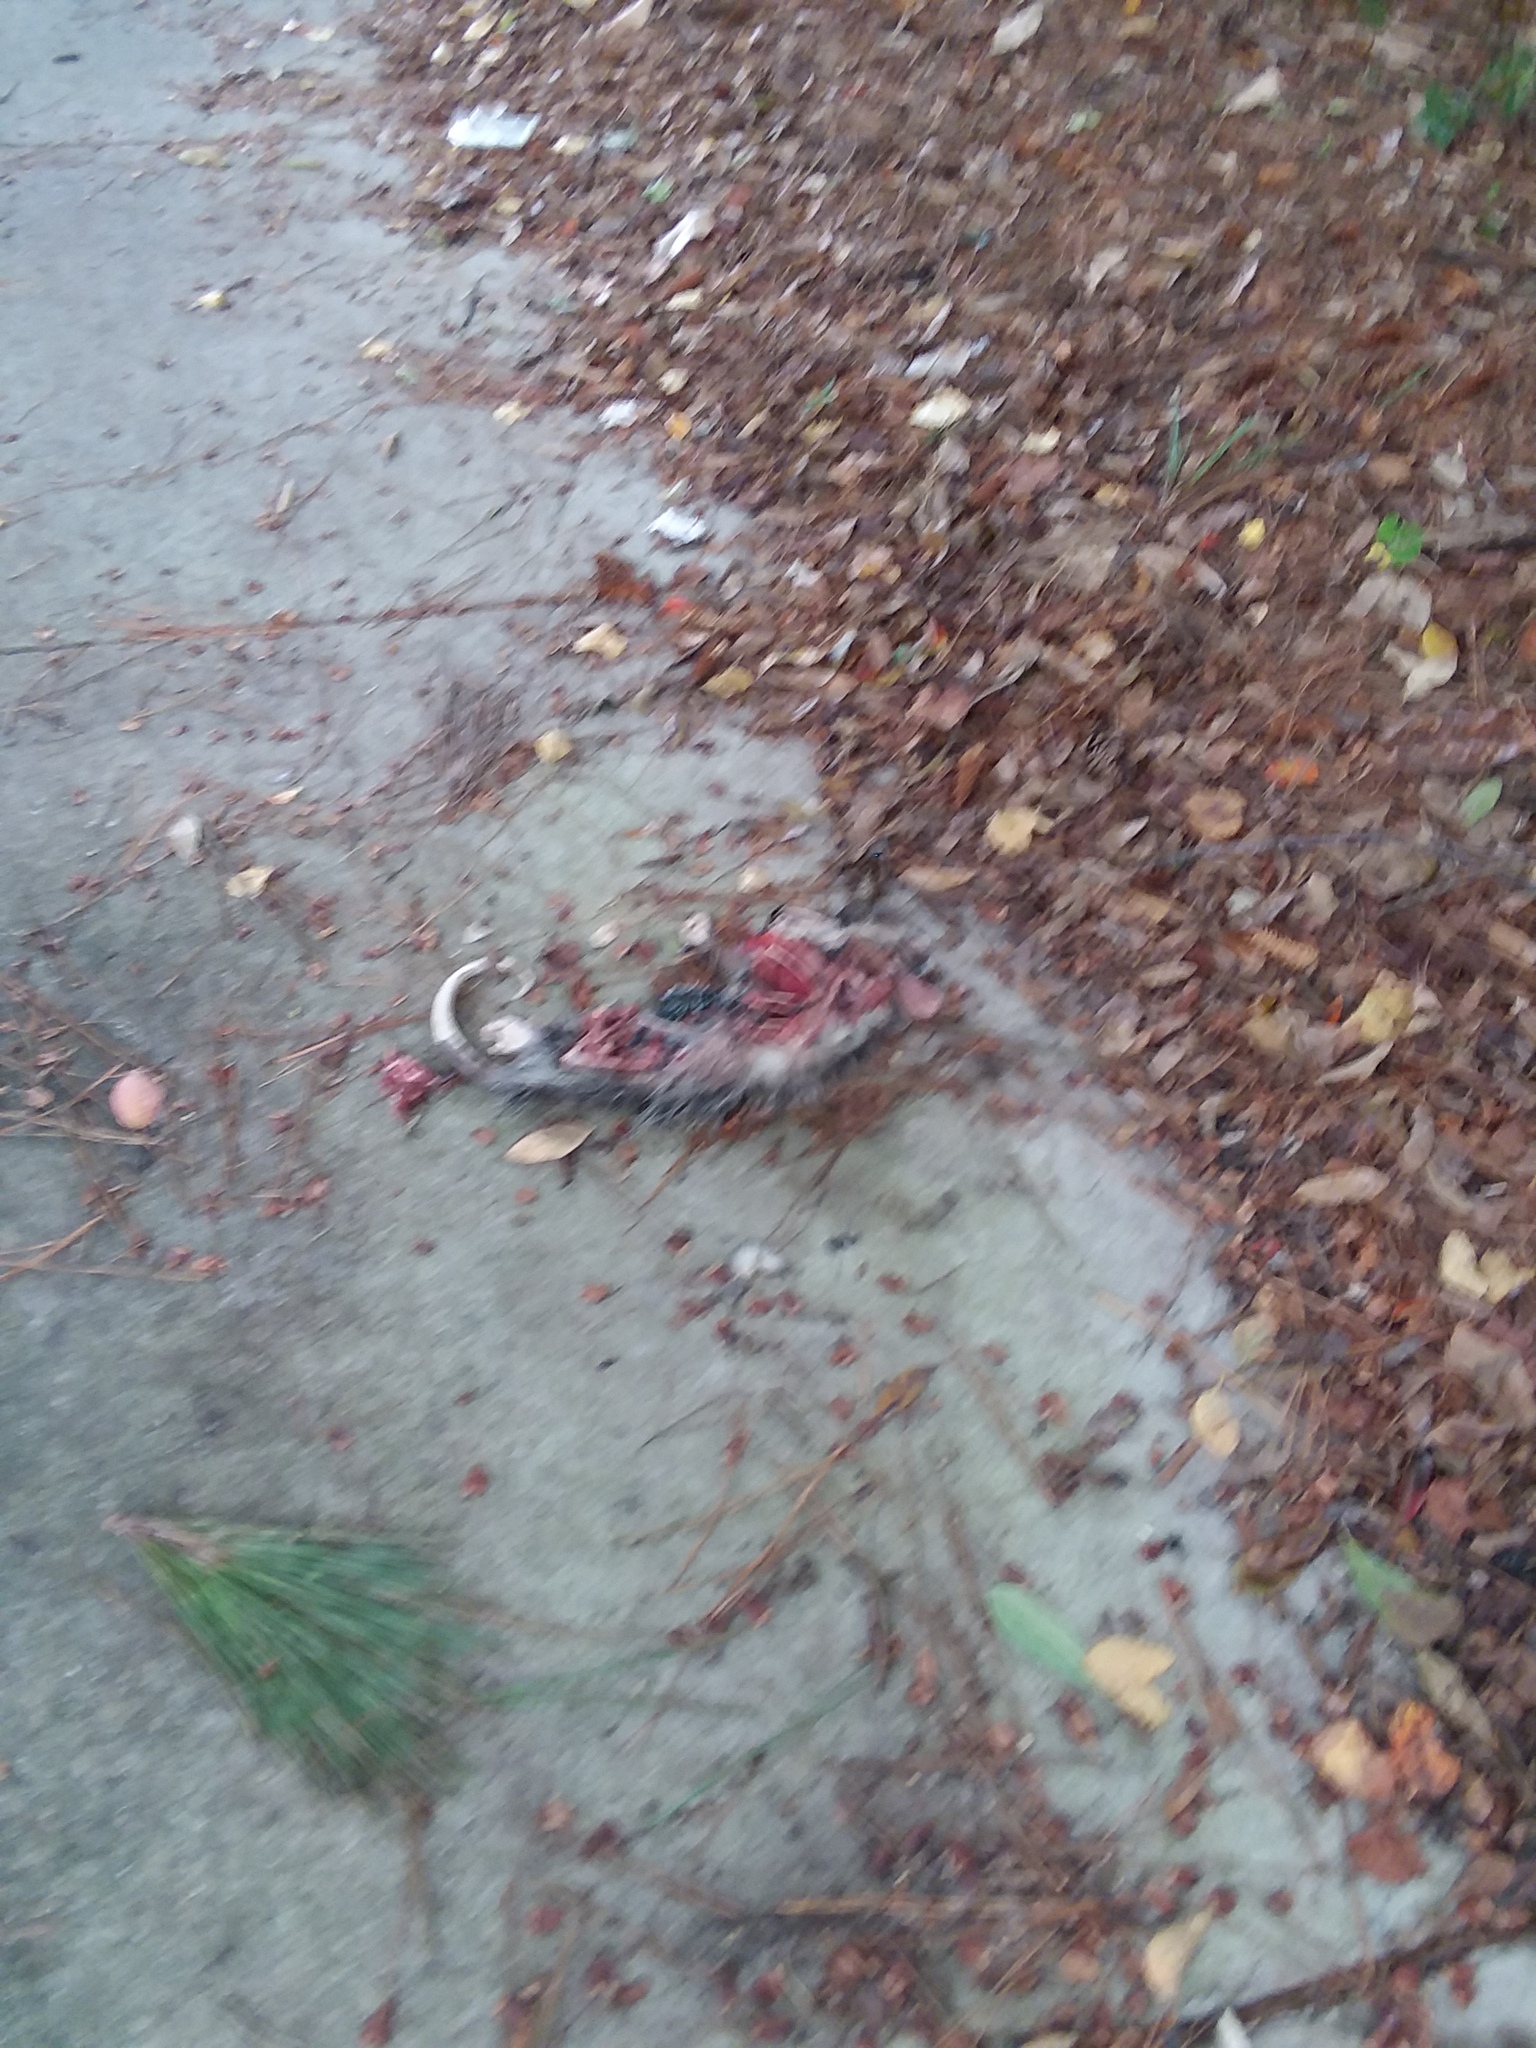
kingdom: Animalia
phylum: Chordata
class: Mammalia
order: Didelphimorphia
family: Didelphidae
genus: Didelphis
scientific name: Didelphis virginiana
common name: Virginia opossum
